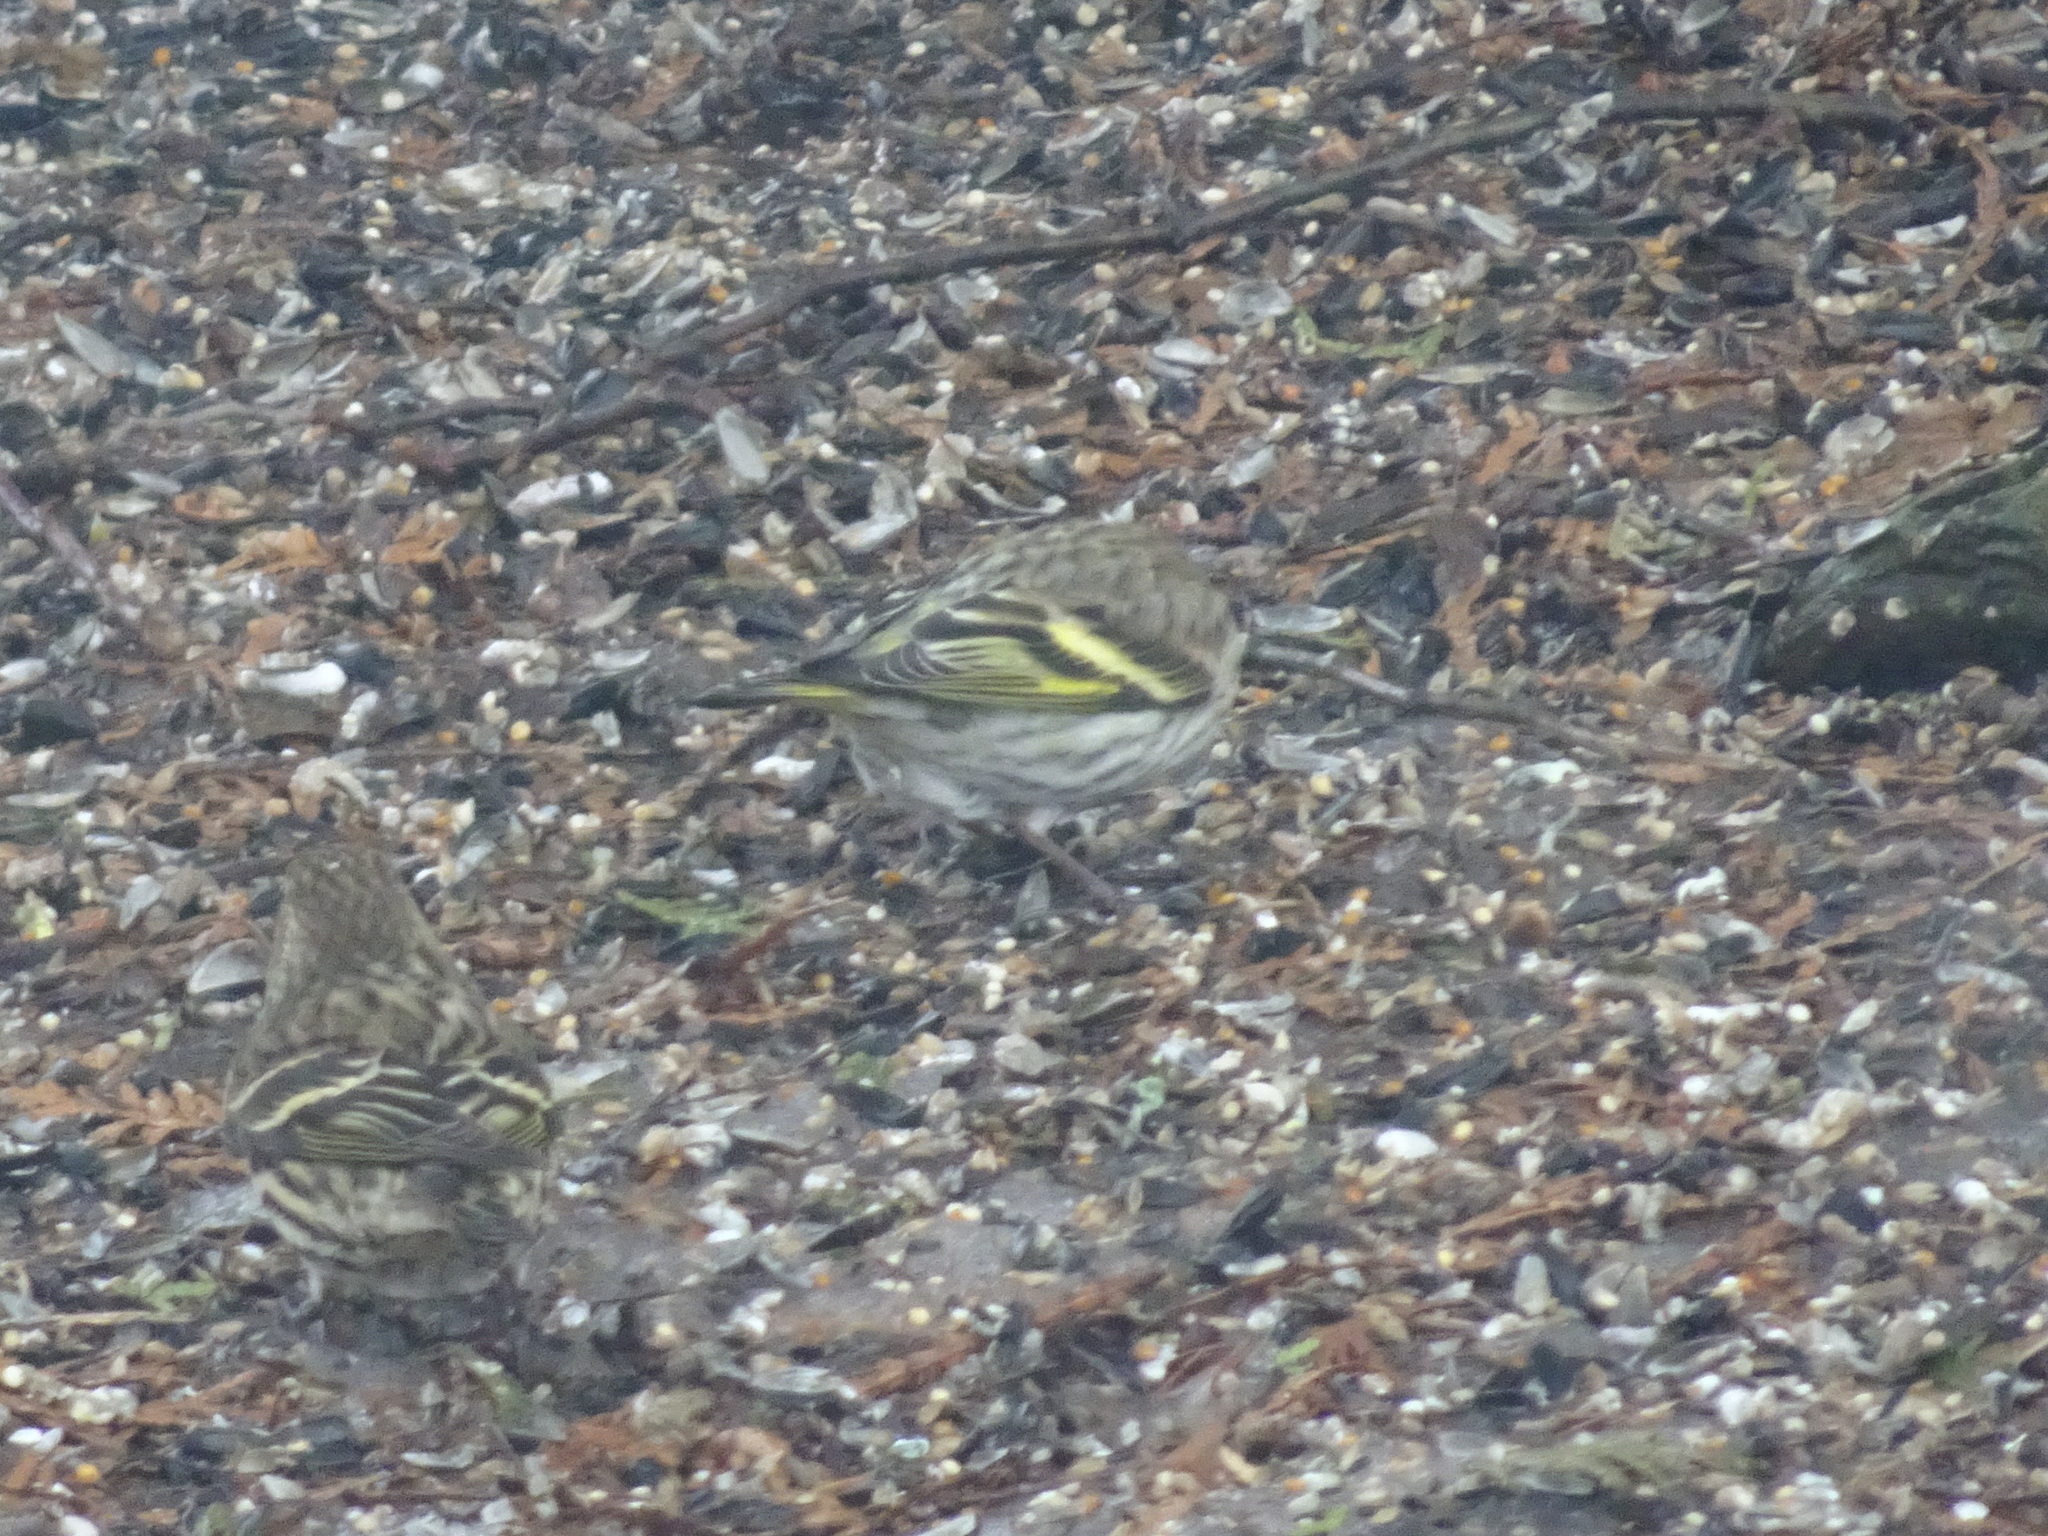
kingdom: Animalia
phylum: Chordata
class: Aves
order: Passeriformes
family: Fringillidae
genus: Spinus
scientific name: Spinus pinus
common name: Pine siskin
